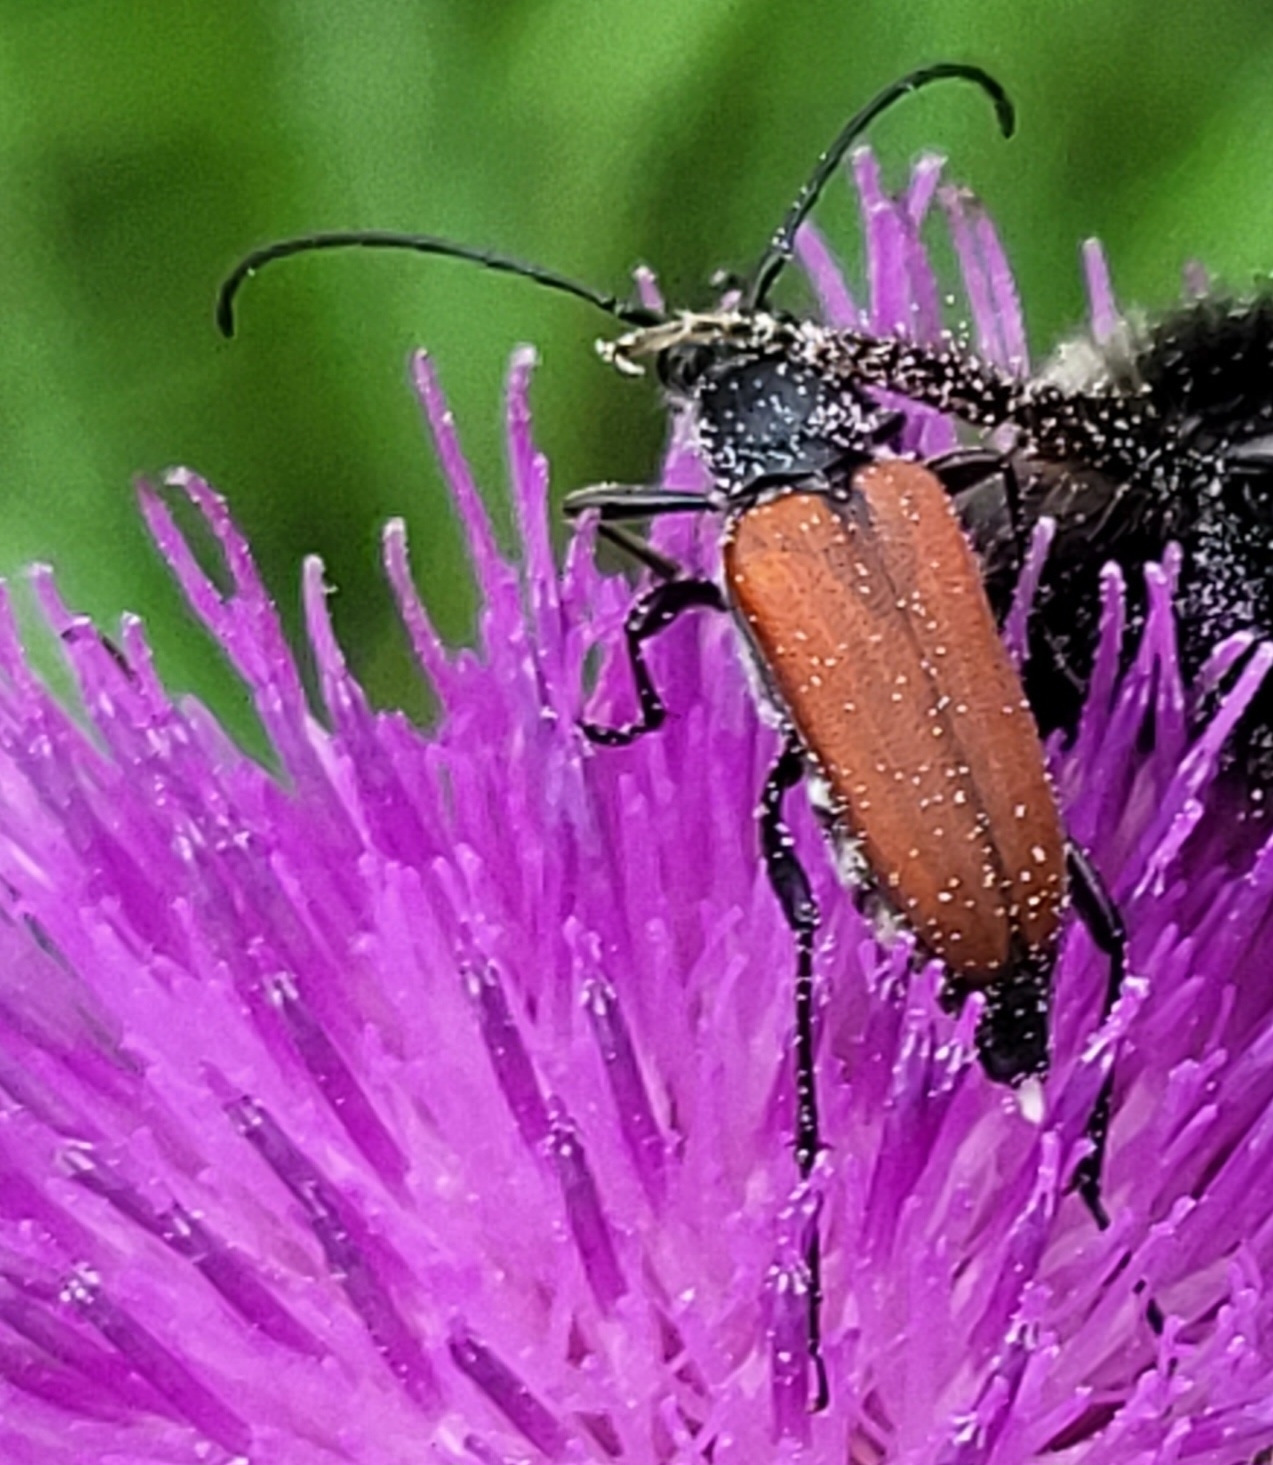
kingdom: Animalia
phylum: Arthropoda
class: Insecta
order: Coleoptera
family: Cerambycidae
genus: Anastrangalia
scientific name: Anastrangalia sanguinolenta
